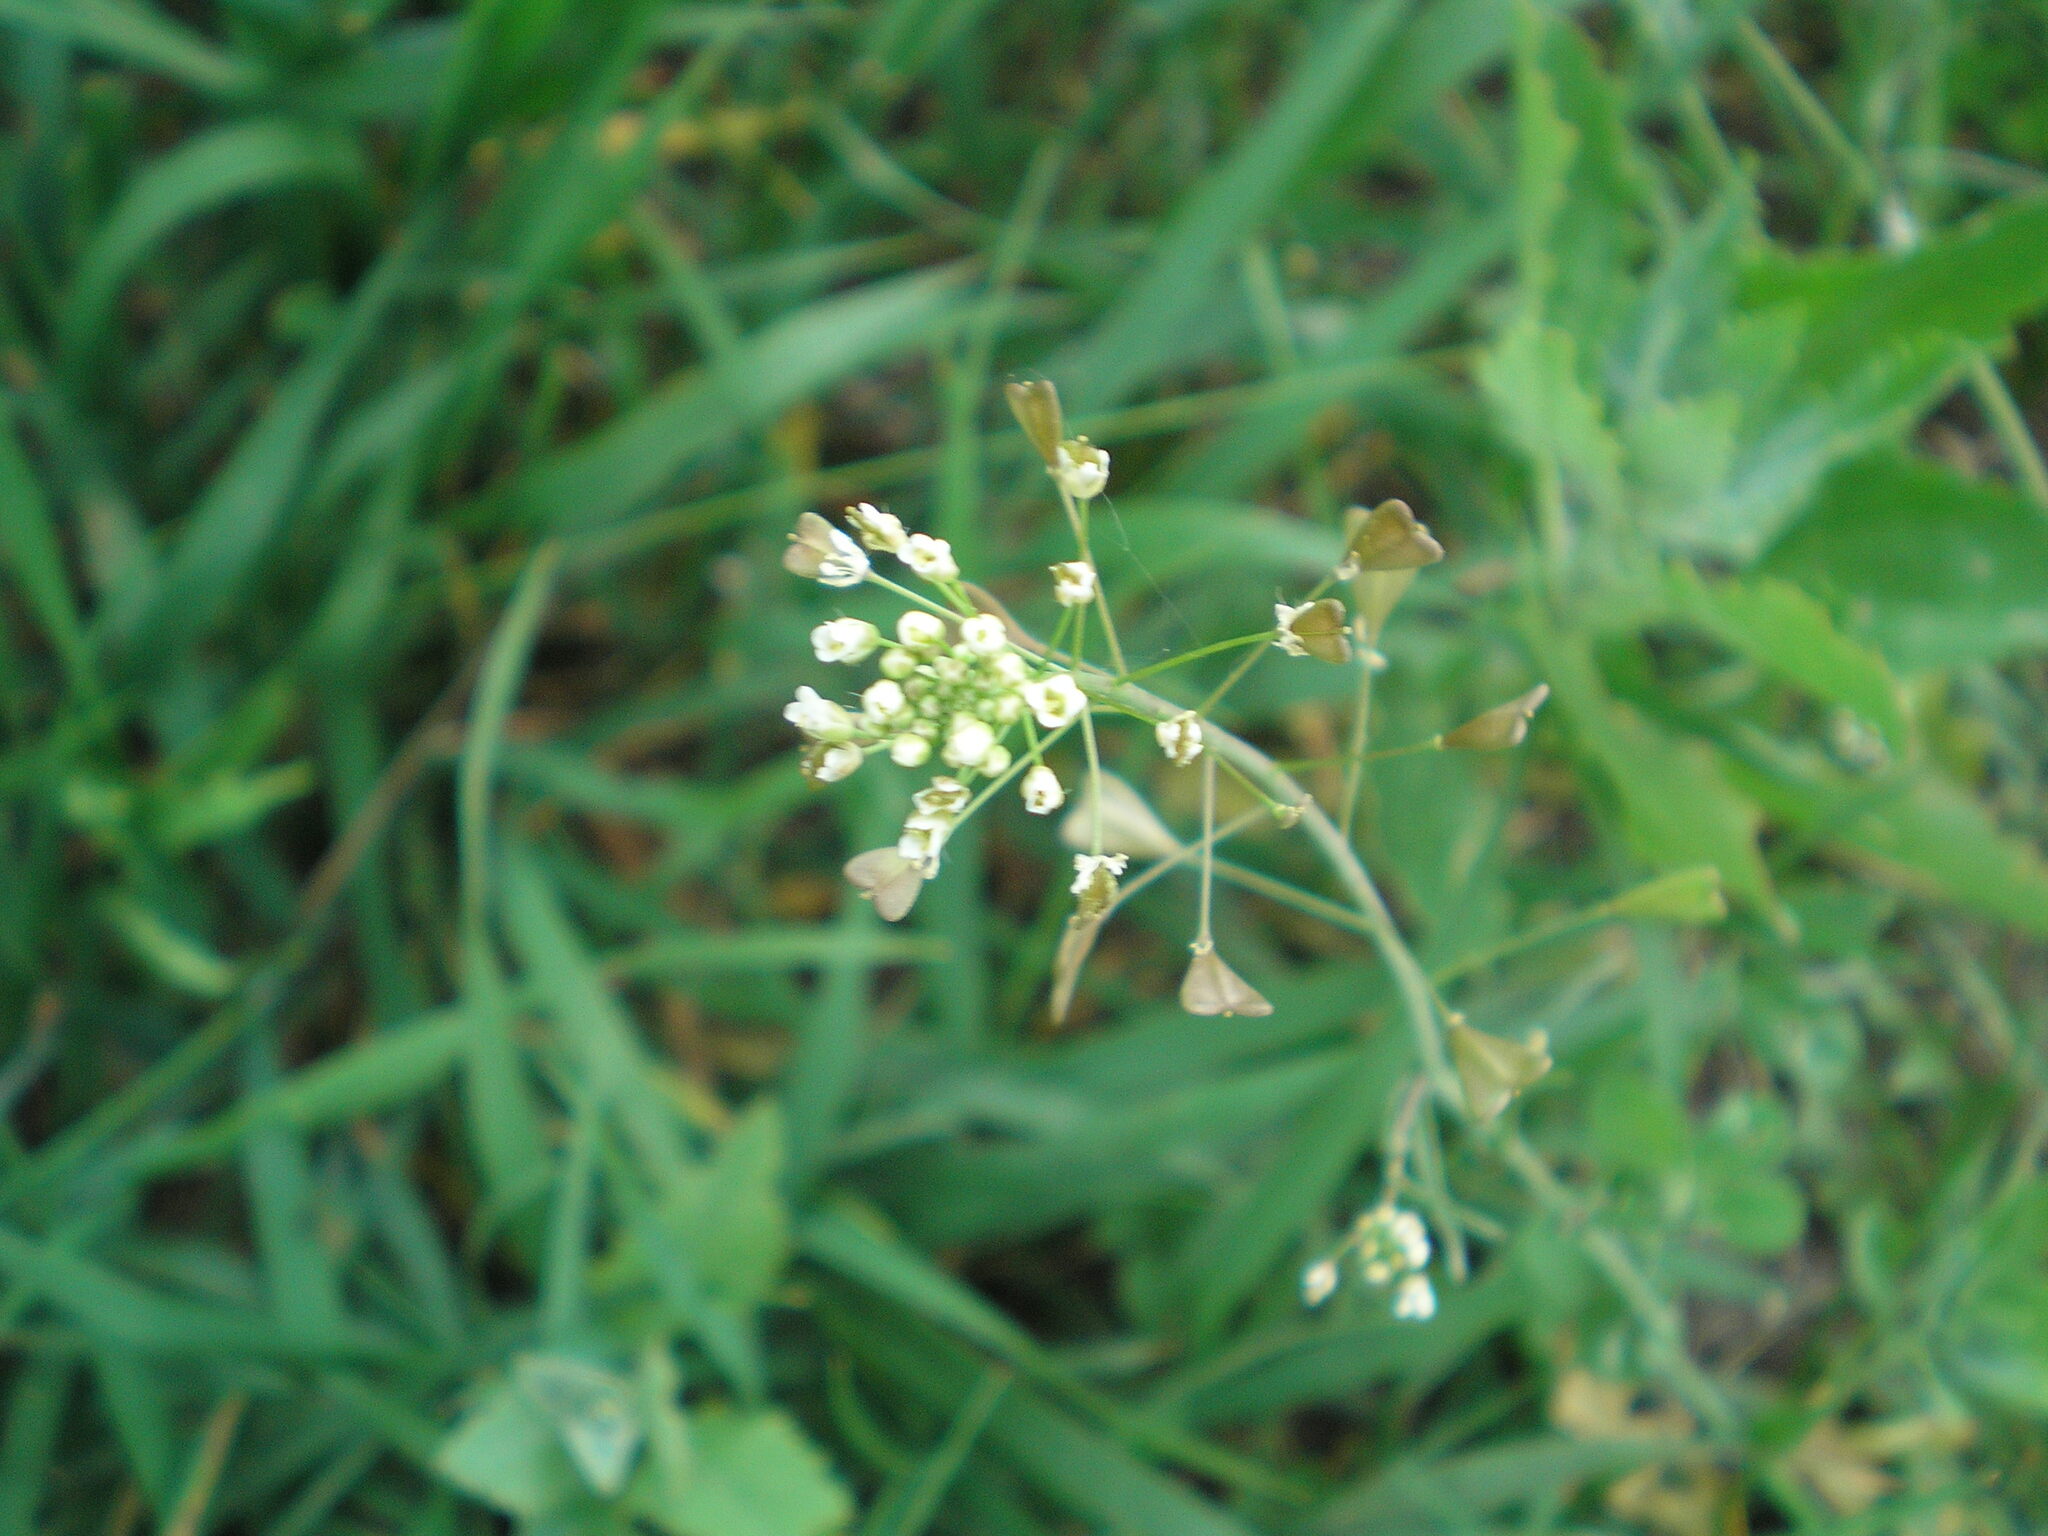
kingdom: Plantae
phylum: Tracheophyta
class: Magnoliopsida
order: Brassicales
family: Brassicaceae
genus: Capsella
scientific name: Capsella bursa-pastoris
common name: Shepherd's purse
